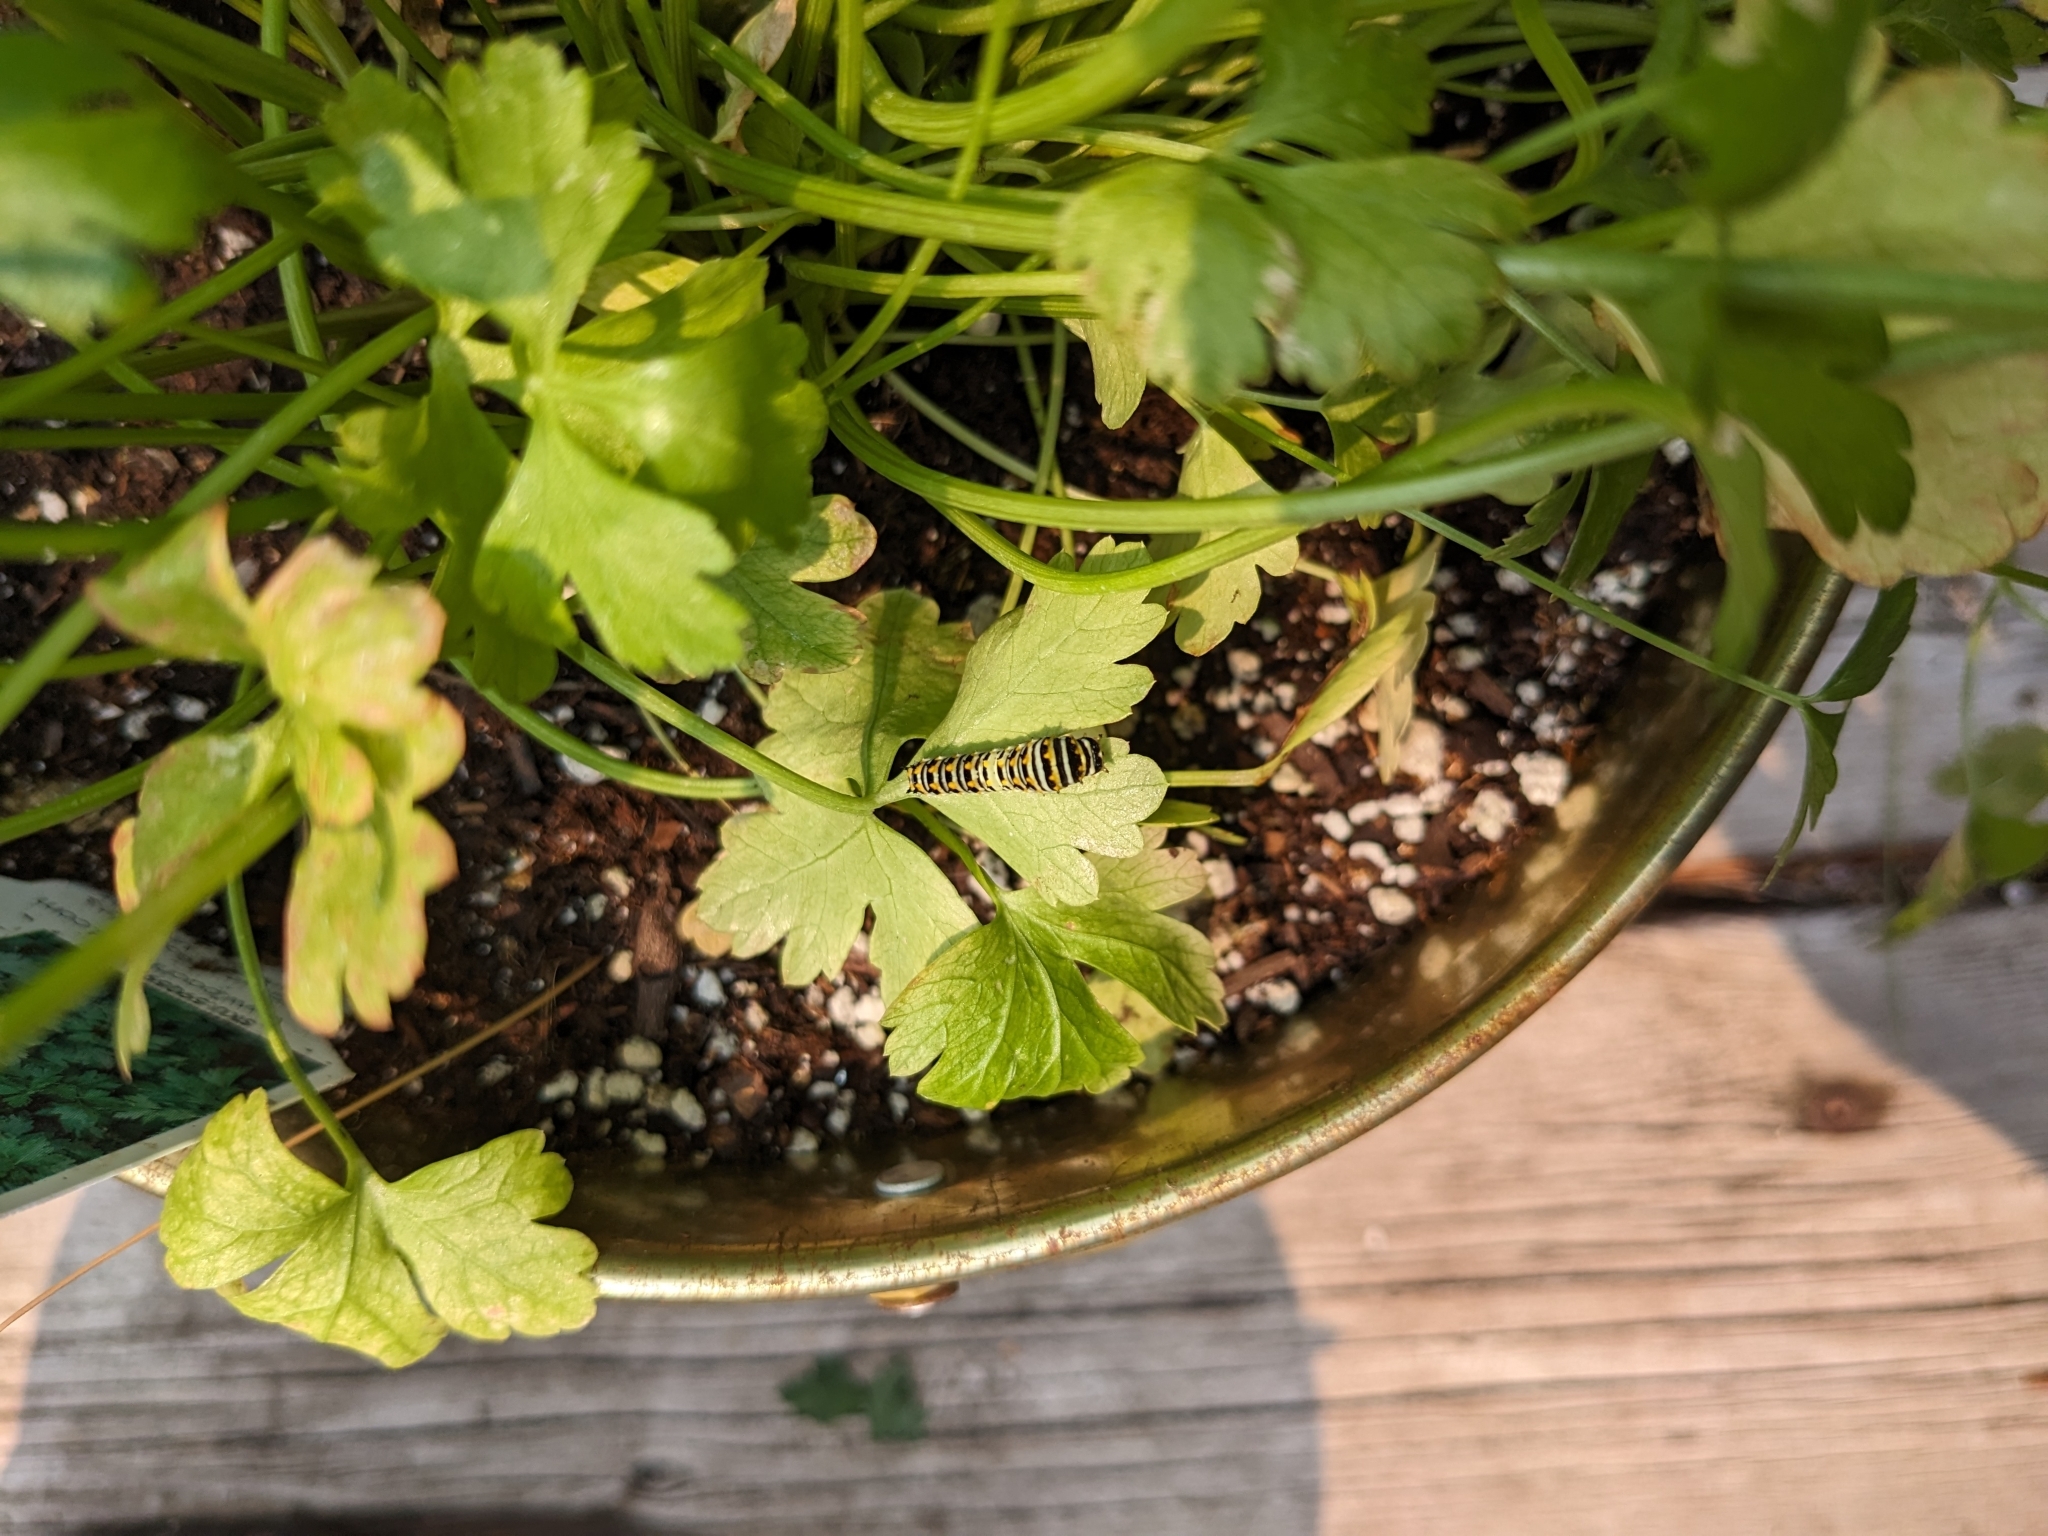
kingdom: Animalia
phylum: Arthropoda
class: Insecta
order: Lepidoptera
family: Papilionidae
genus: Papilio
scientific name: Papilio polyxenes
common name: Black swallowtail
